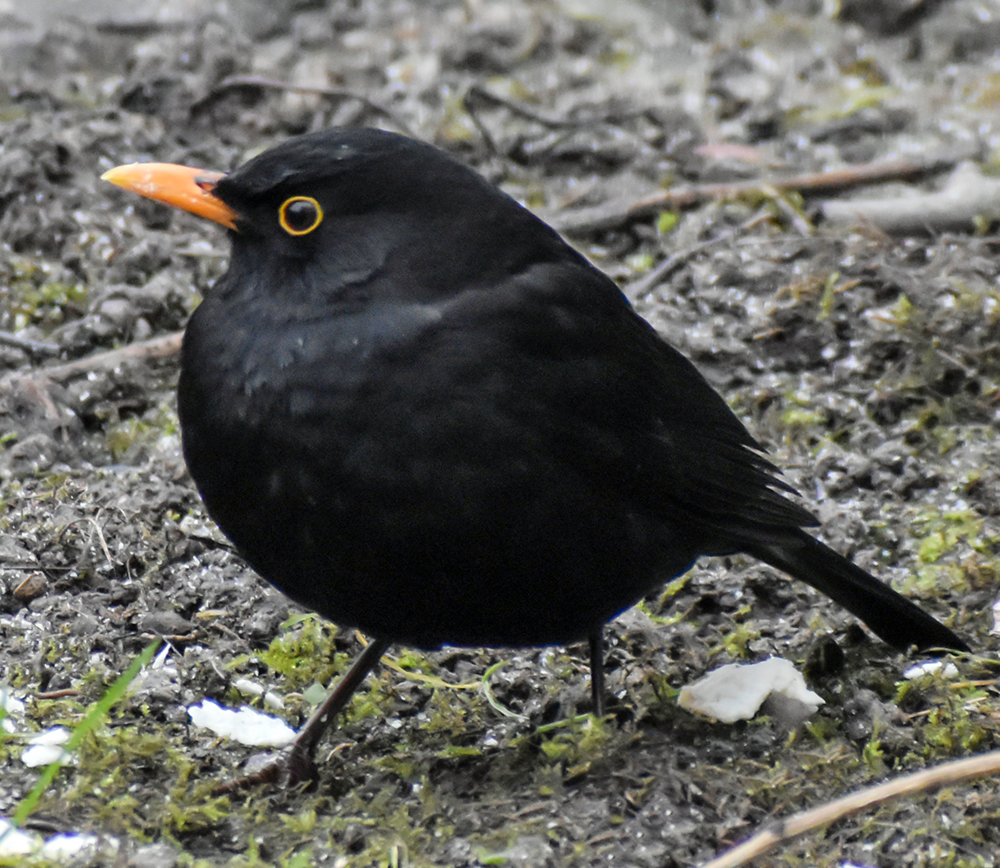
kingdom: Animalia
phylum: Chordata
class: Aves
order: Passeriformes
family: Turdidae
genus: Turdus
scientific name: Turdus merula
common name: Common blackbird
